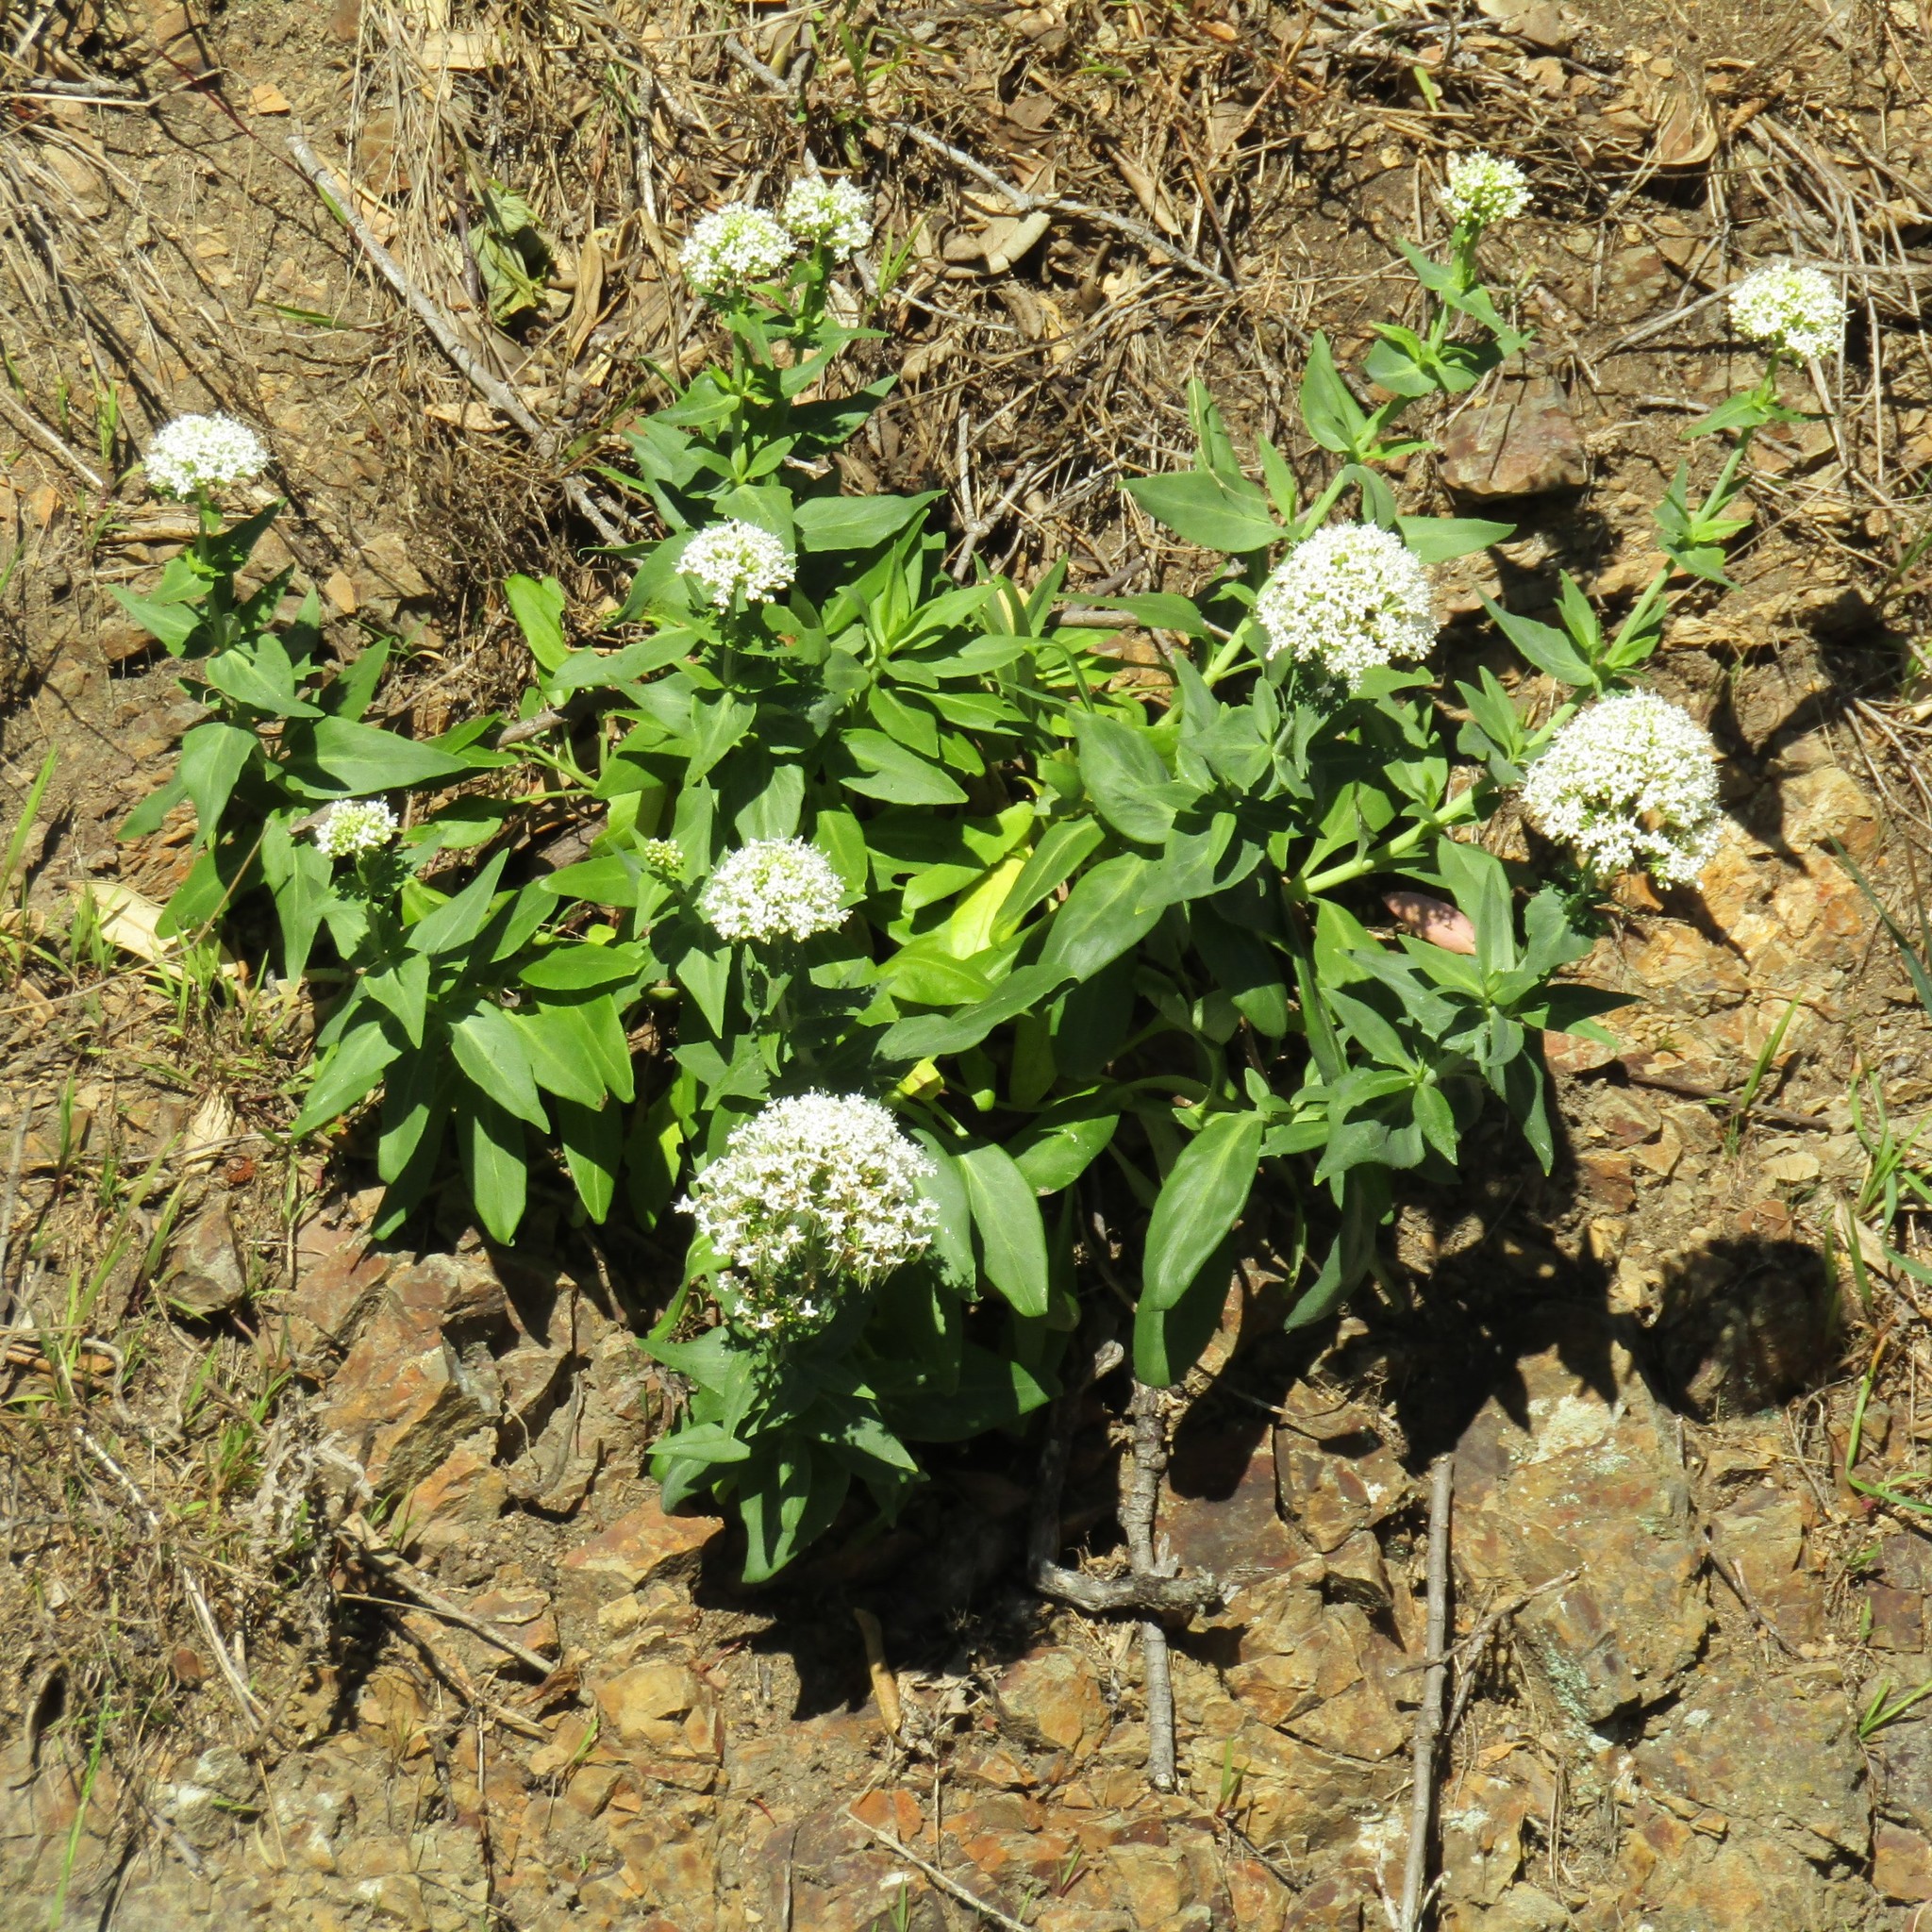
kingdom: Plantae
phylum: Tracheophyta
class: Magnoliopsida
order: Dipsacales
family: Caprifoliaceae
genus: Centranthus
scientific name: Centranthus ruber
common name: Red valerian
